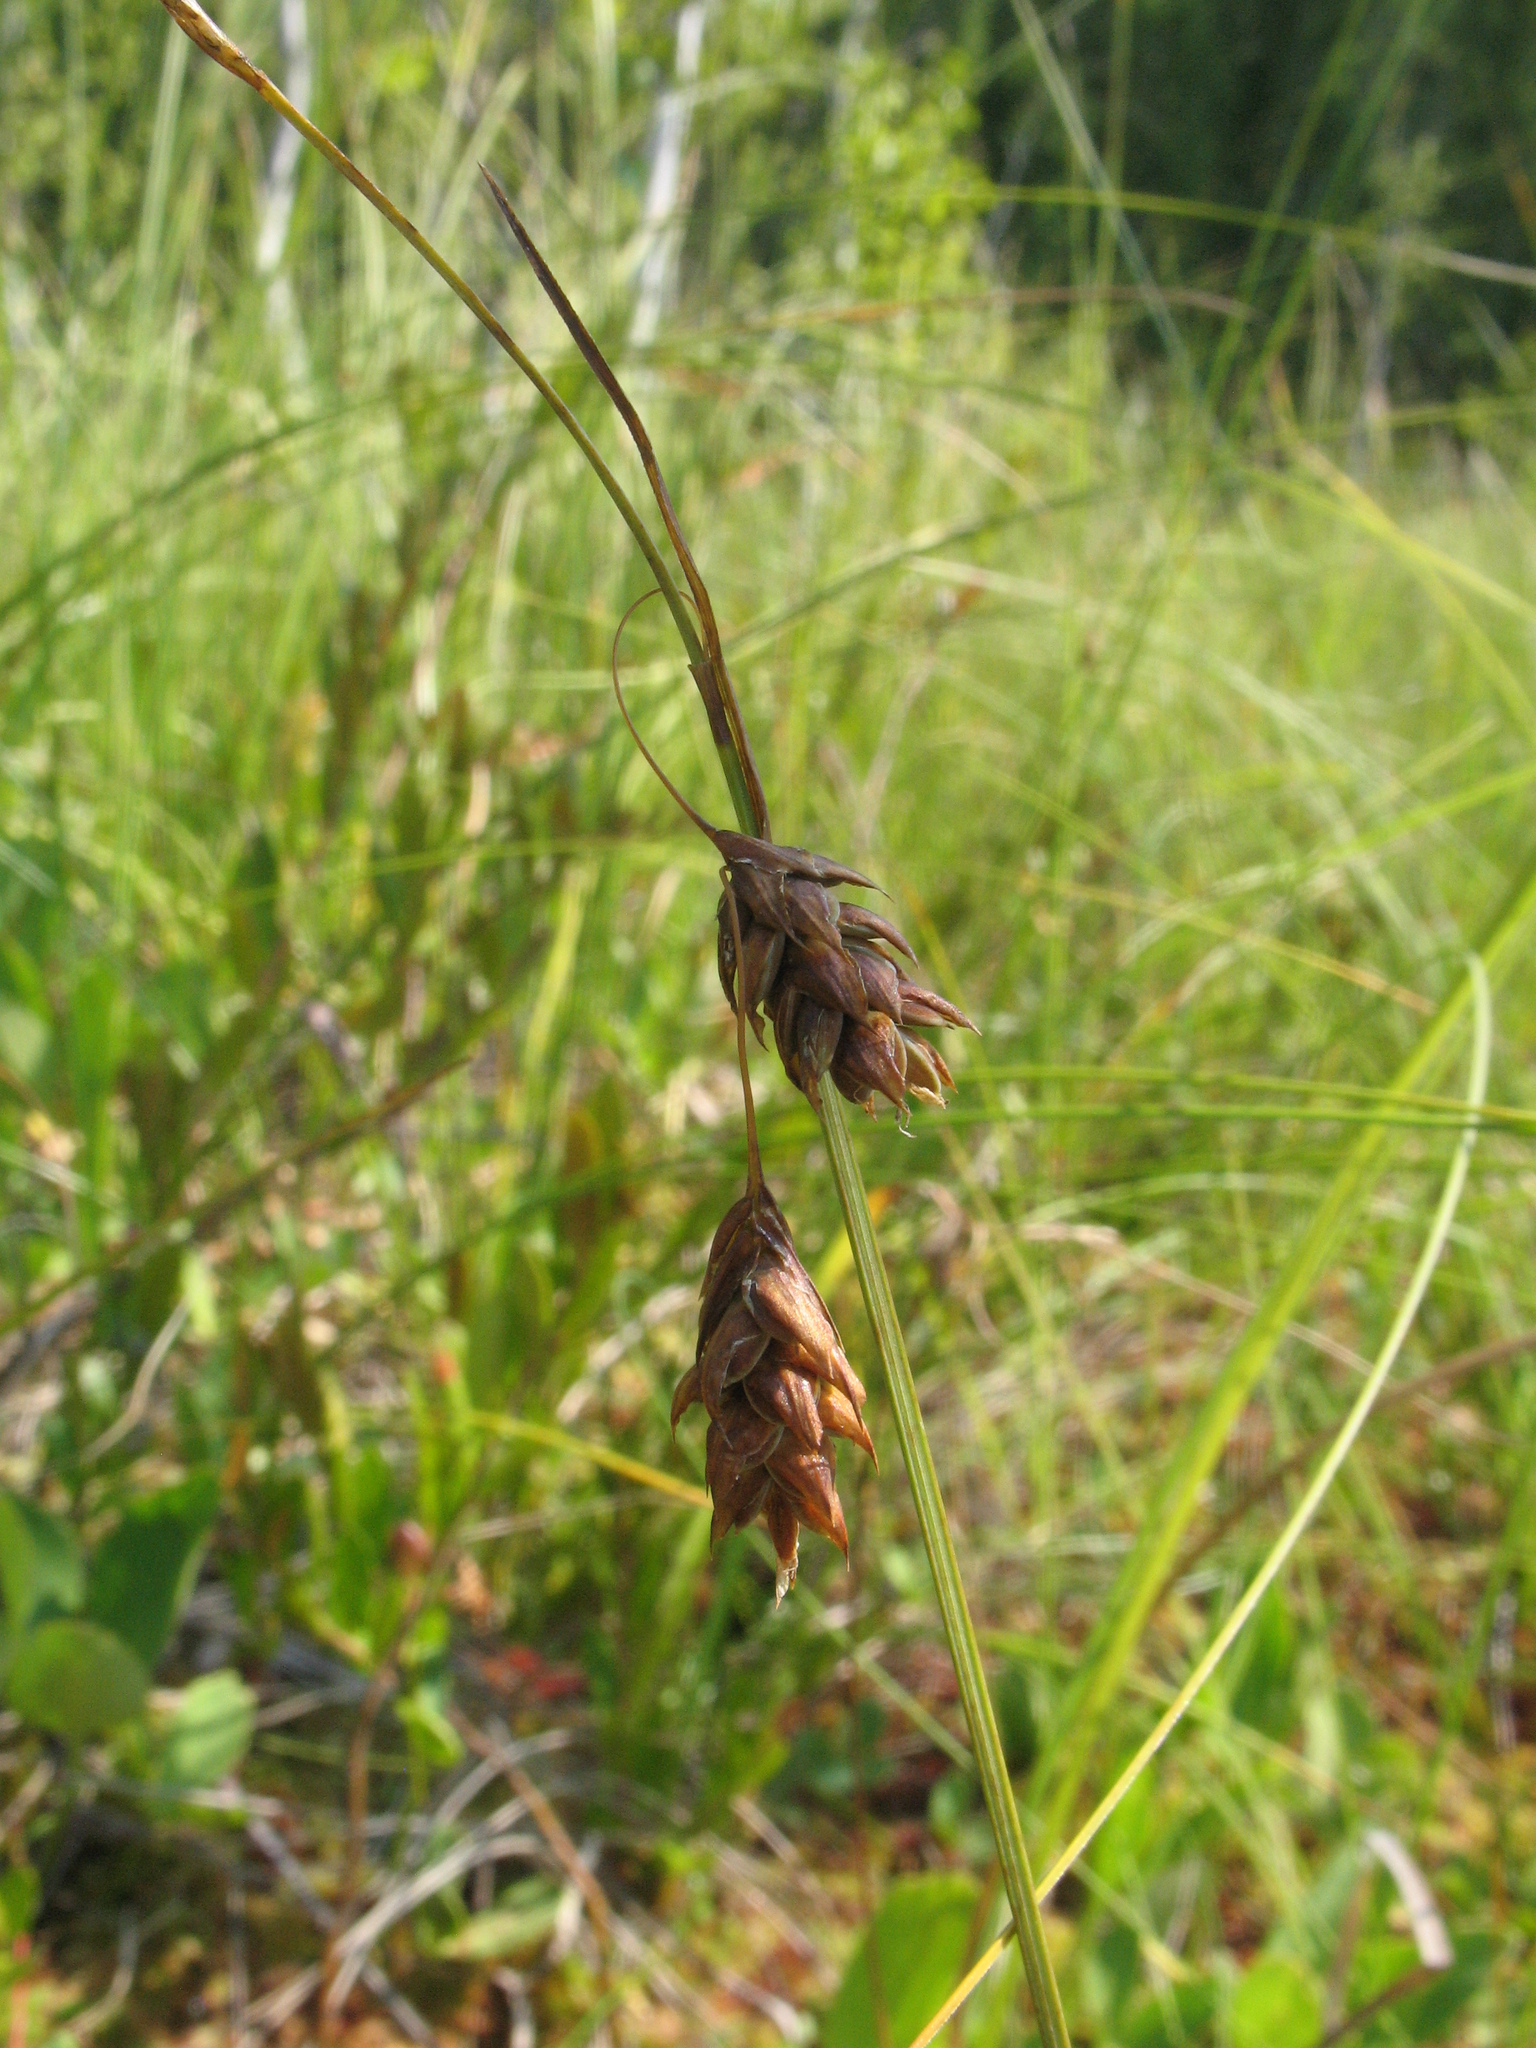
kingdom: Plantae
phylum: Tracheophyta
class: Liliopsida
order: Poales
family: Cyperaceae
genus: Carex
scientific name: Carex limosa
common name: Bog sedge
